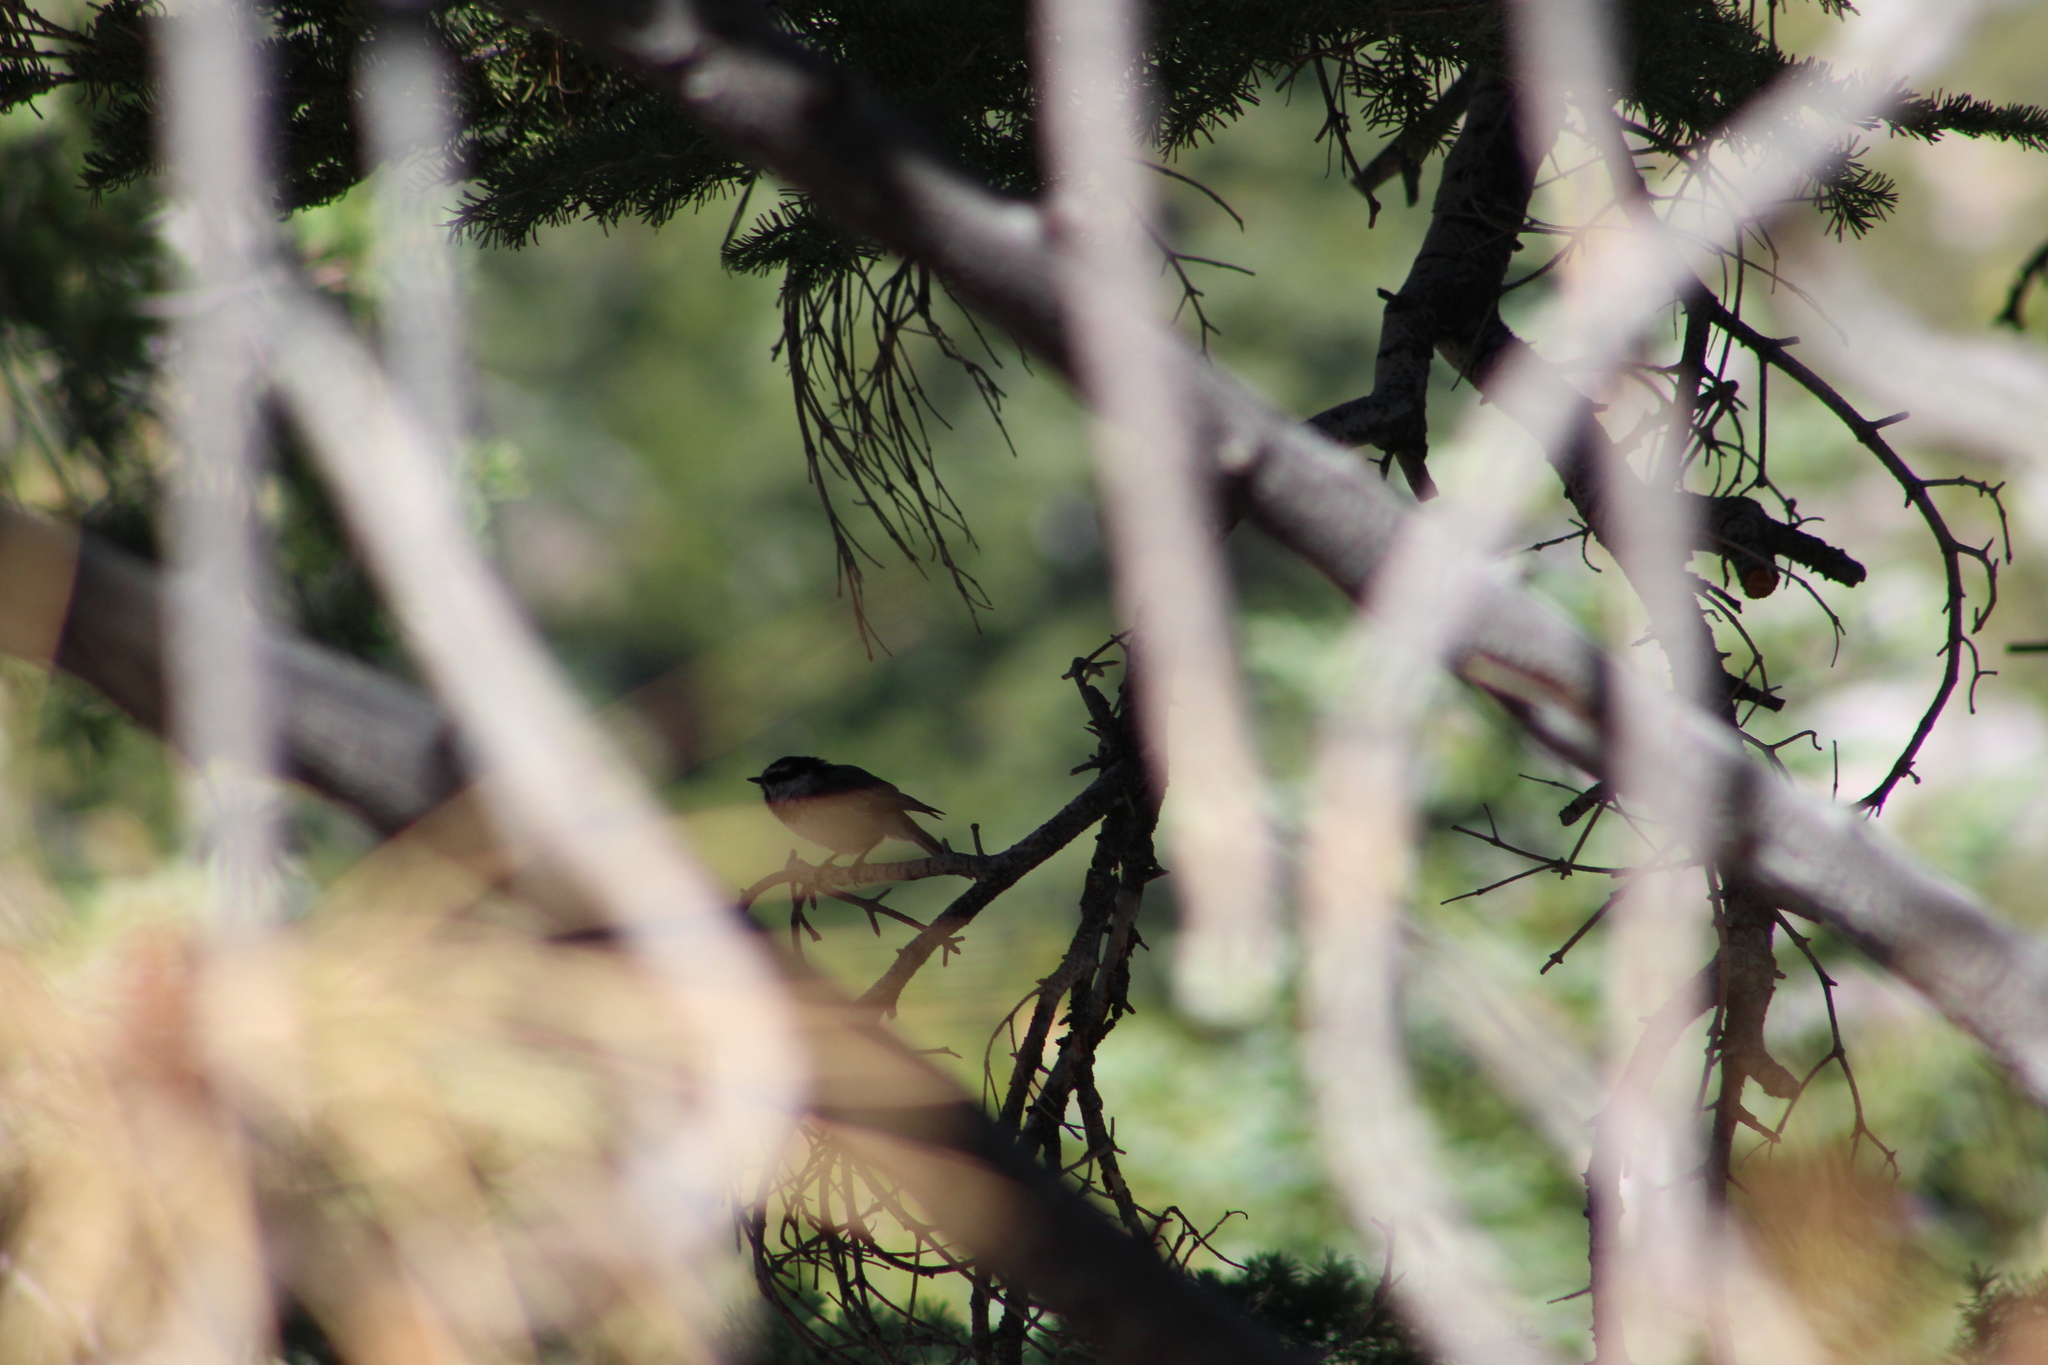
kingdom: Animalia
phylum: Chordata
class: Aves
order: Passeriformes
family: Paridae
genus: Poecile
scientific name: Poecile gambeli
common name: Mountain chickadee
